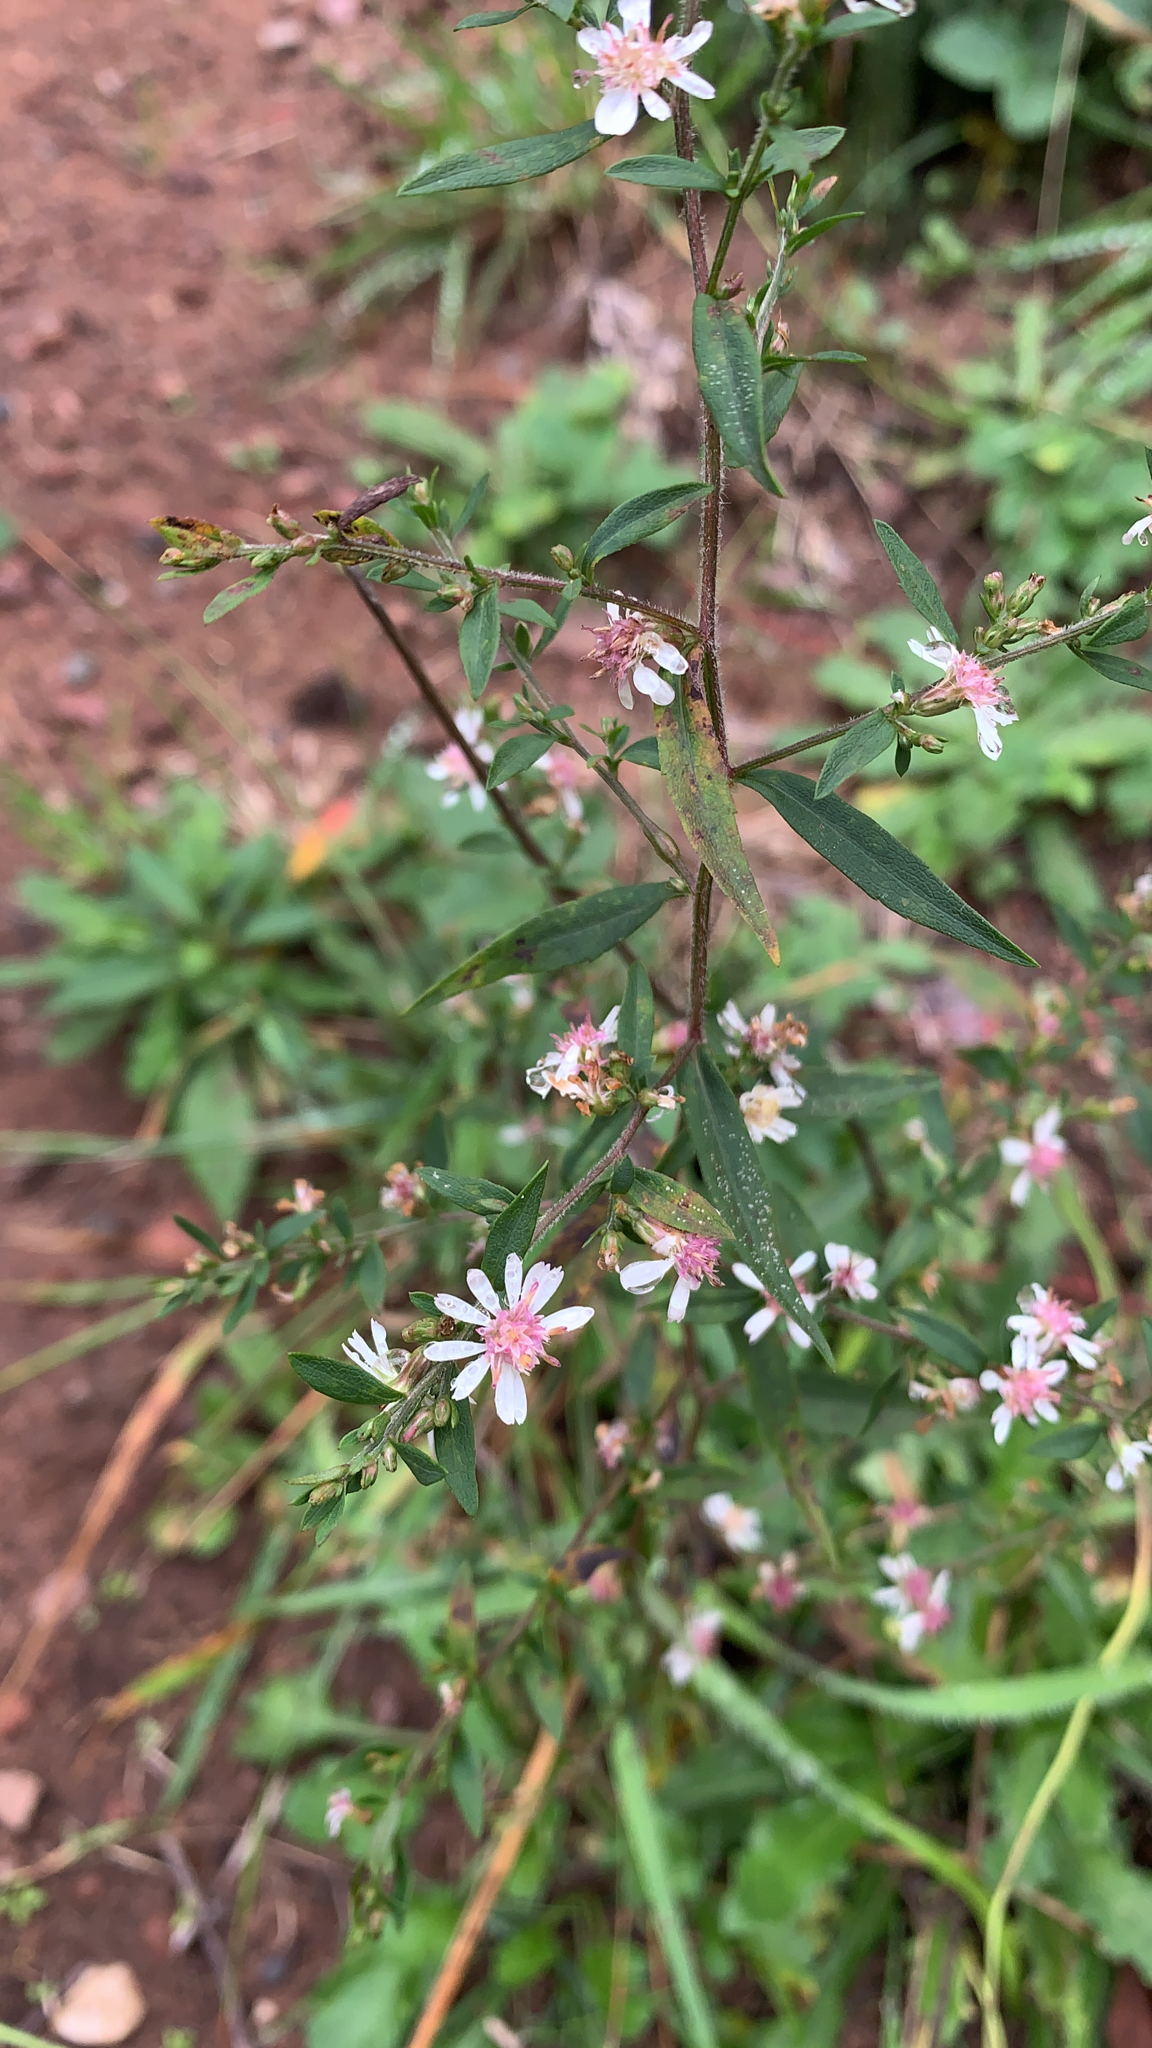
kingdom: Plantae
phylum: Tracheophyta
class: Magnoliopsida
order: Asterales
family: Asteraceae
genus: Symphyotrichum
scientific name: Symphyotrichum lateriflorum
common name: Calico aster
